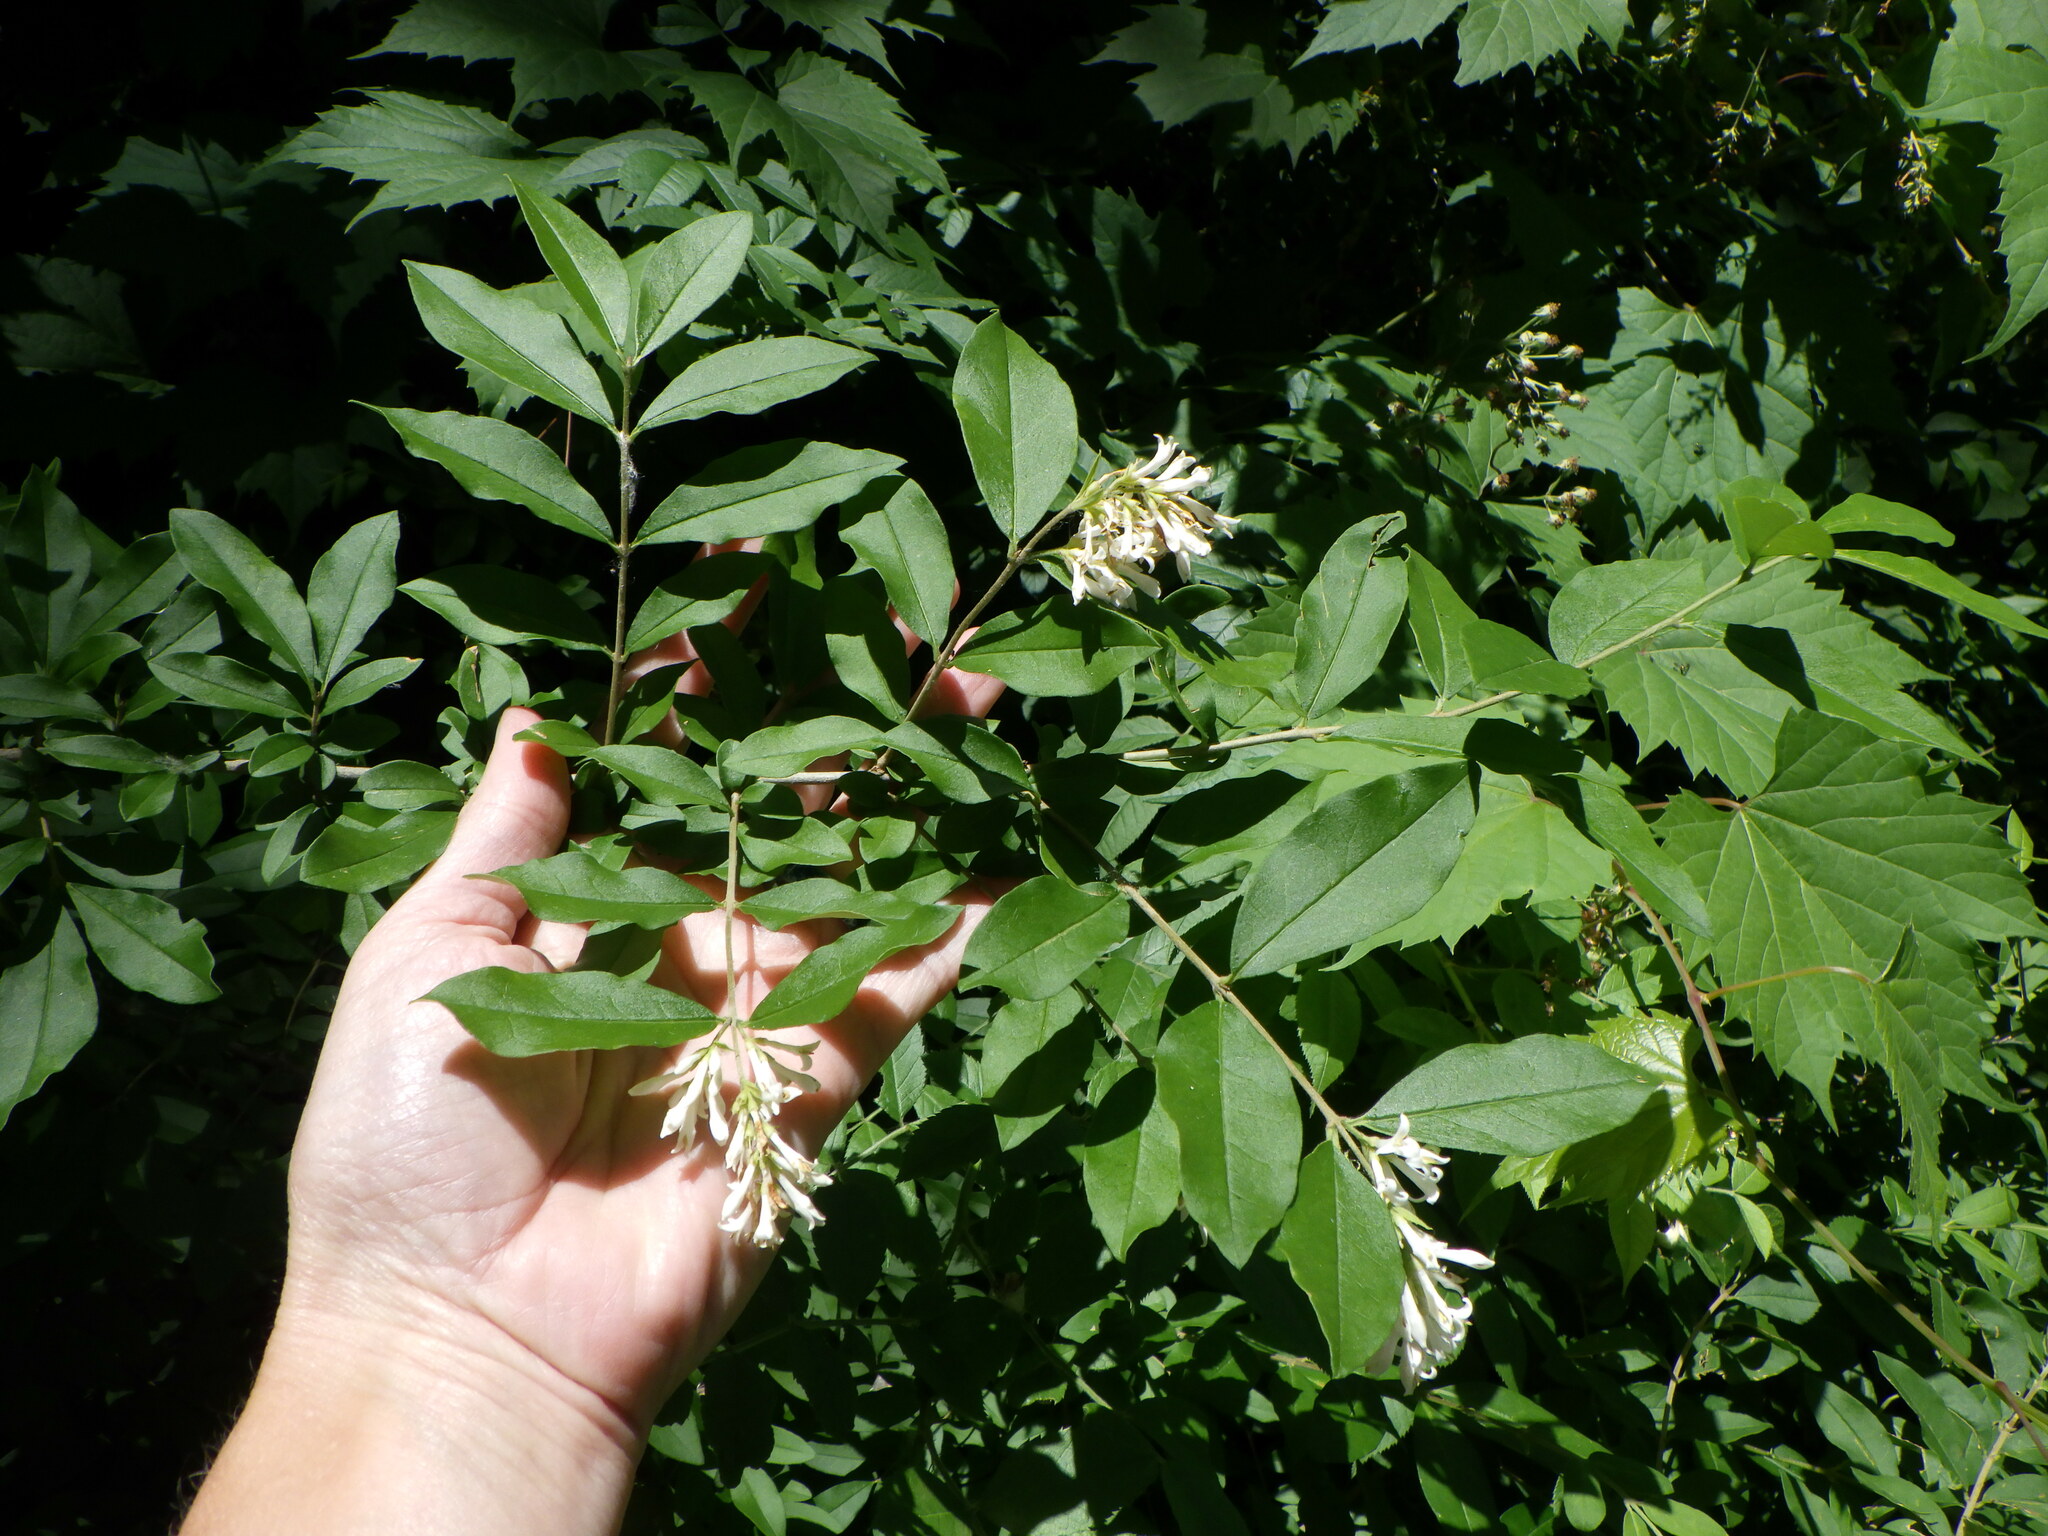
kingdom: Plantae
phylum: Tracheophyta
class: Magnoliopsida
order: Lamiales
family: Oleaceae
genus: Ligustrum
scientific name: Ligustrum obtusifolium
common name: Border privet
